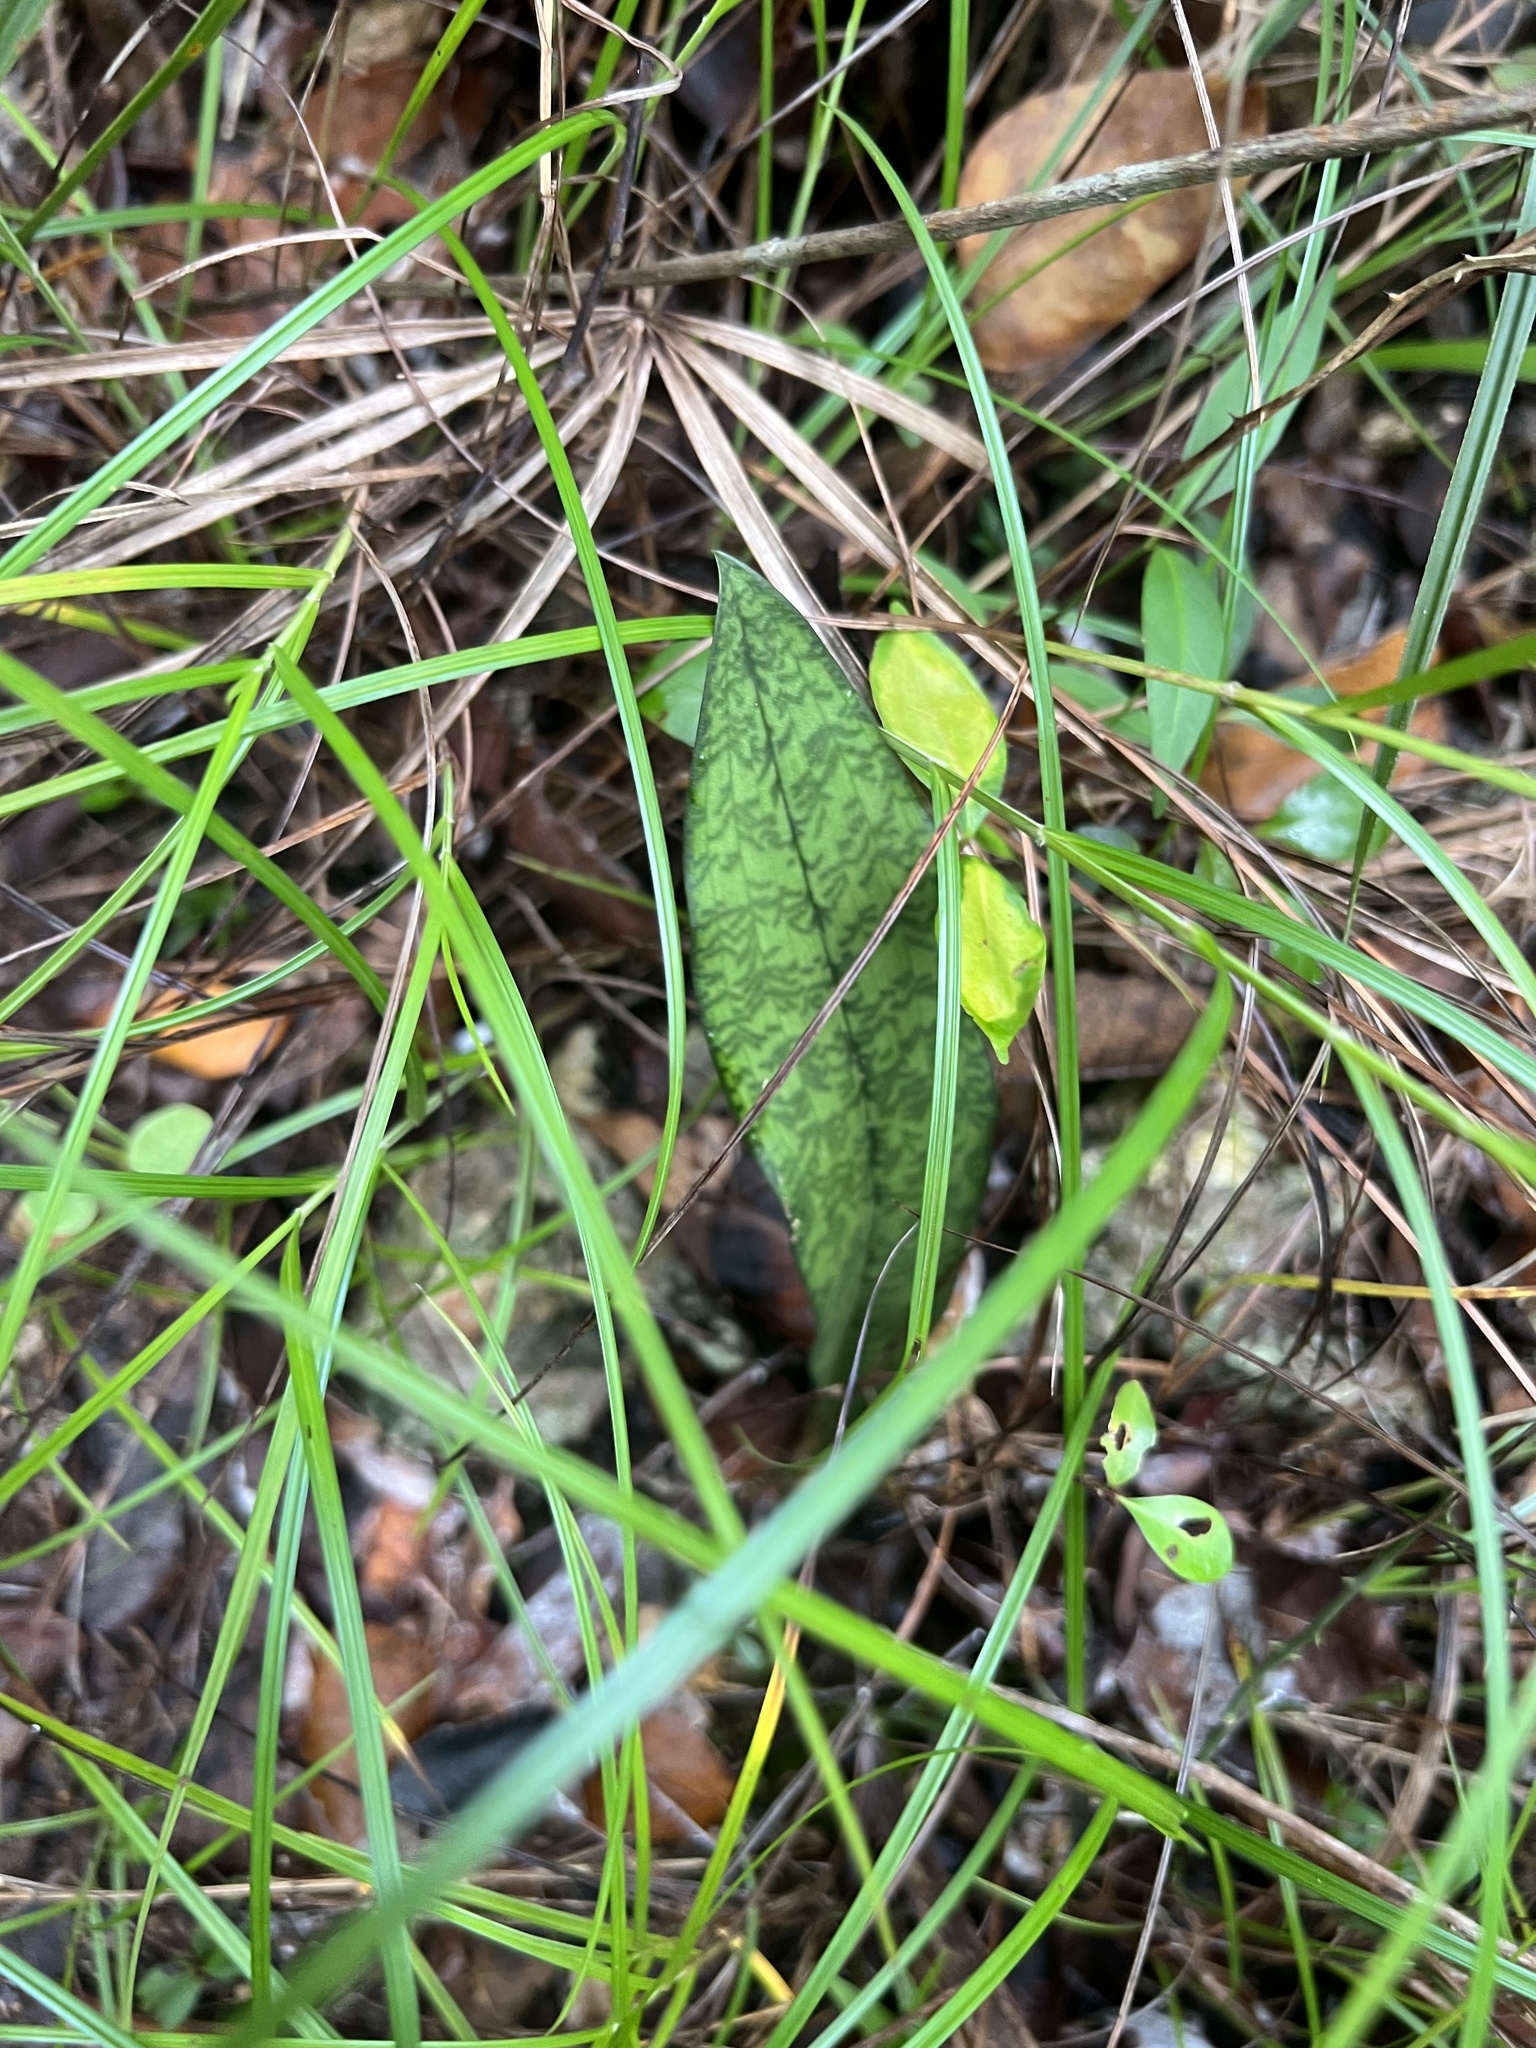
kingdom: Plantae
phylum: Tracheophyta
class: Liliopsida
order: Asparagales
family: Orchidaceae
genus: Eulophia
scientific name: Eulophia maculata
